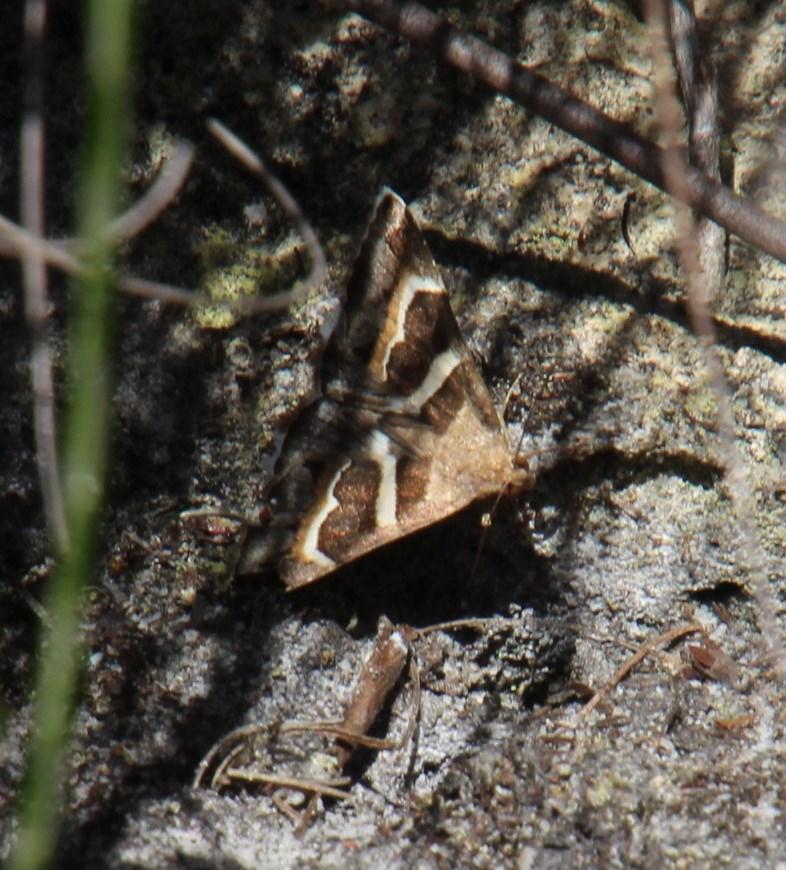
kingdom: Animalia
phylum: Arthropoda
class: Insecta
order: Lepidoptera
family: Erebidae
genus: Grammodes
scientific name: Grammodes stolida
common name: Geometrician
